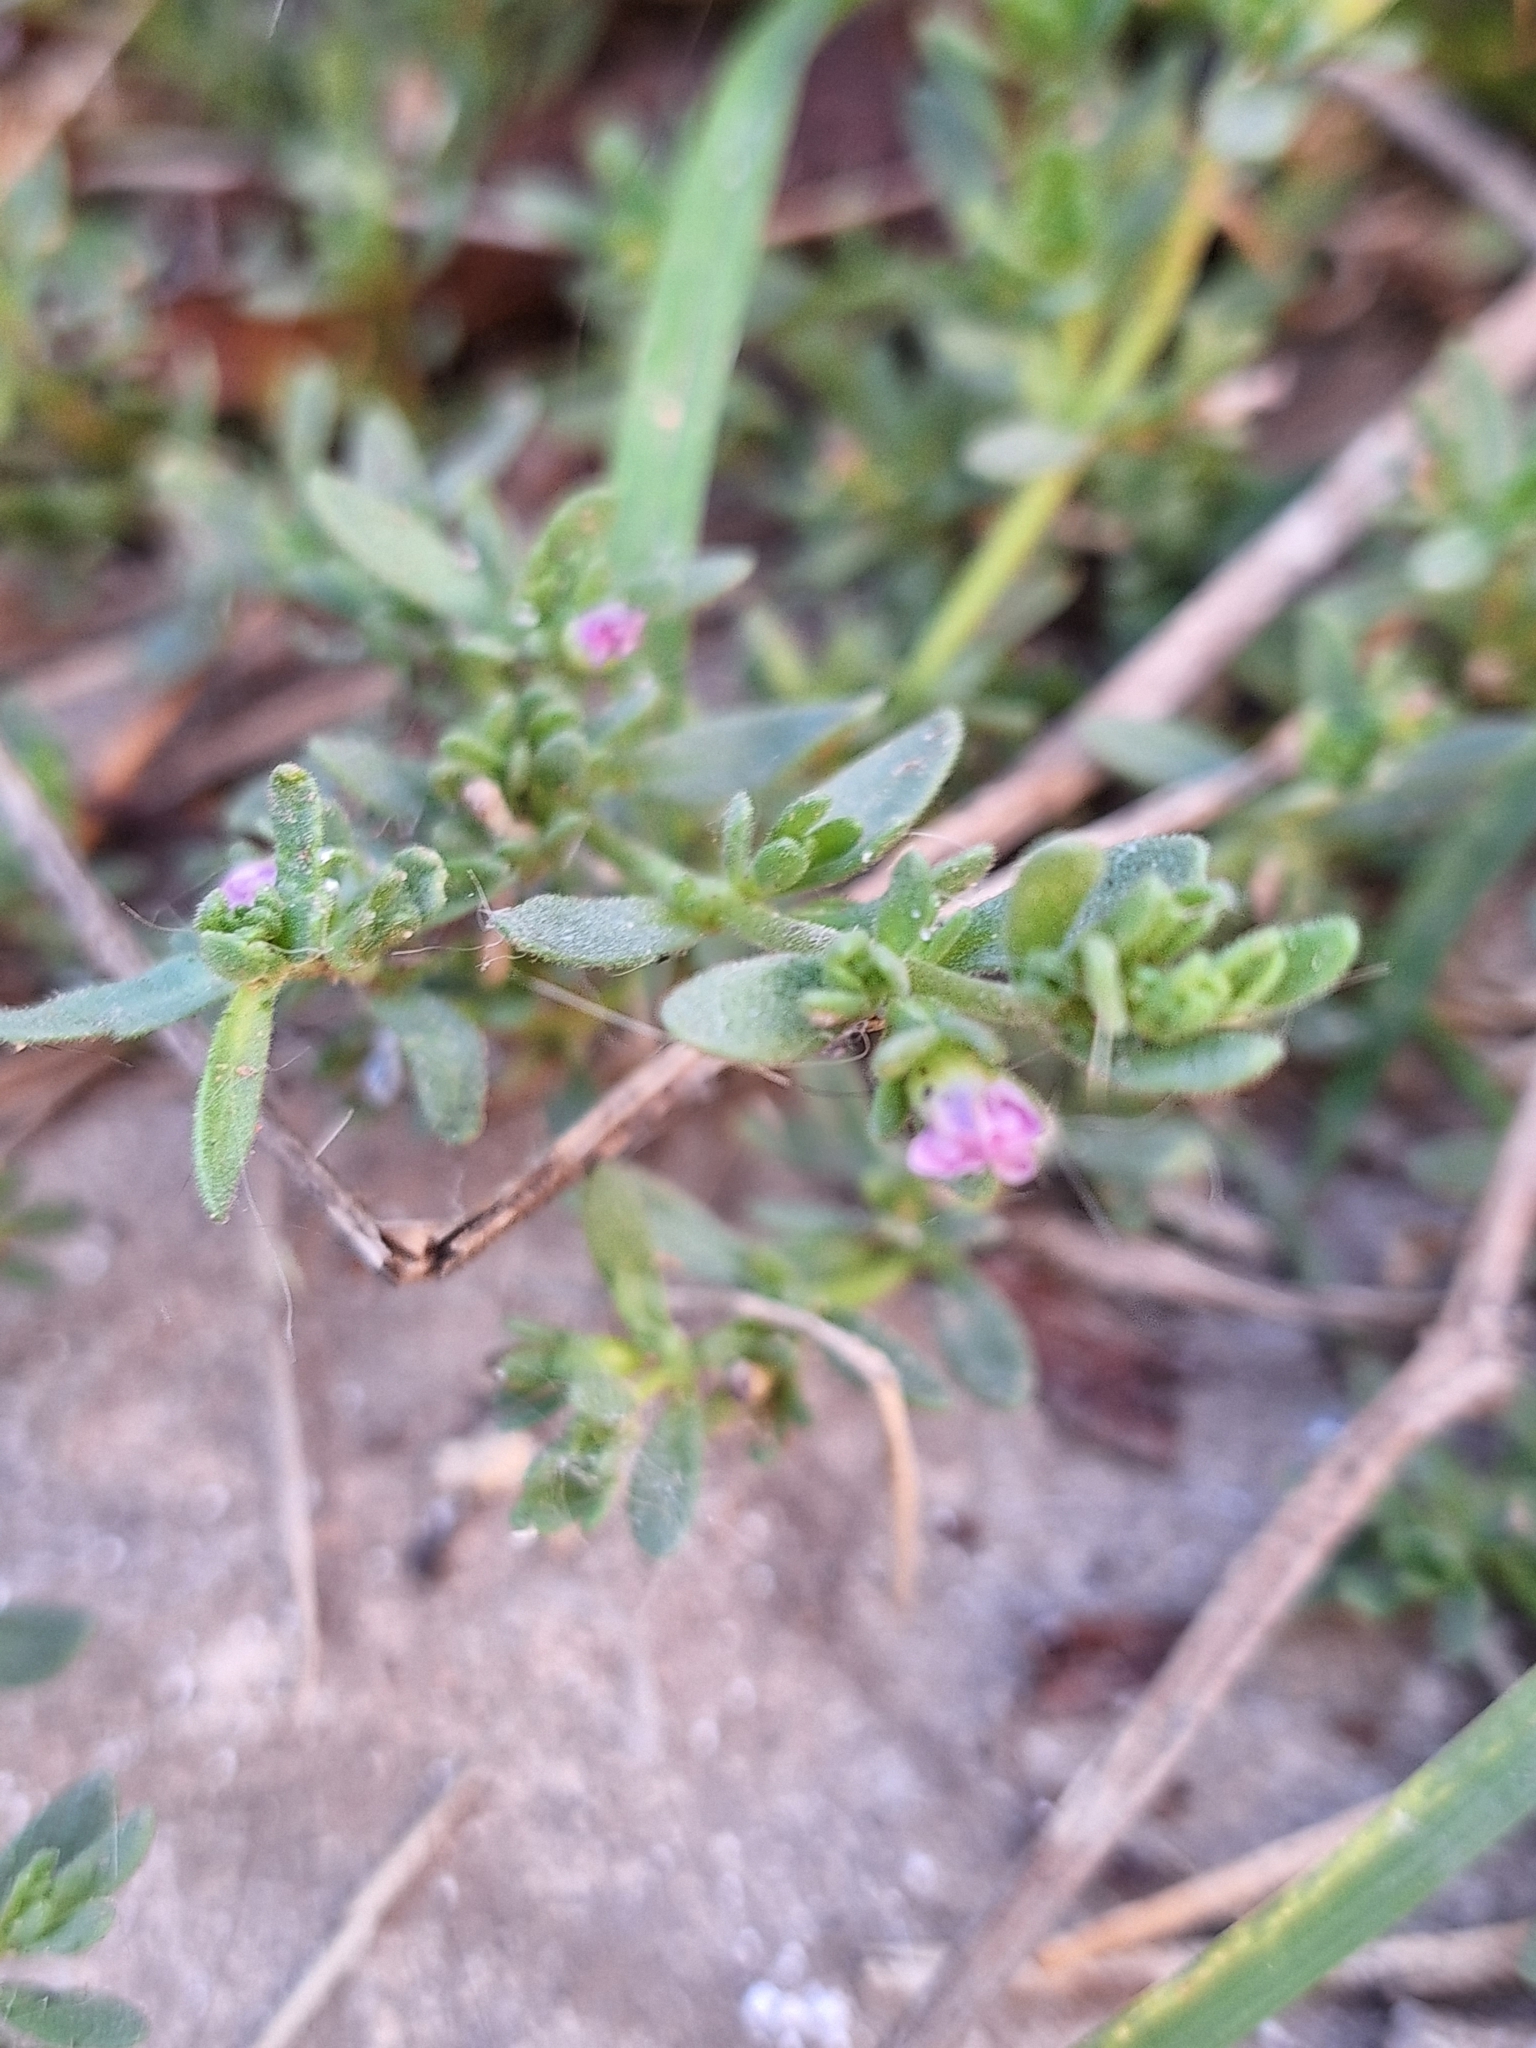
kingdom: Plantae
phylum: Tracheophyta
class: Magnoliopsida
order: Solanales
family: Solanaceae
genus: Calibrachoa
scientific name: Calibrachoa parviflora
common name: Seaside petunia
